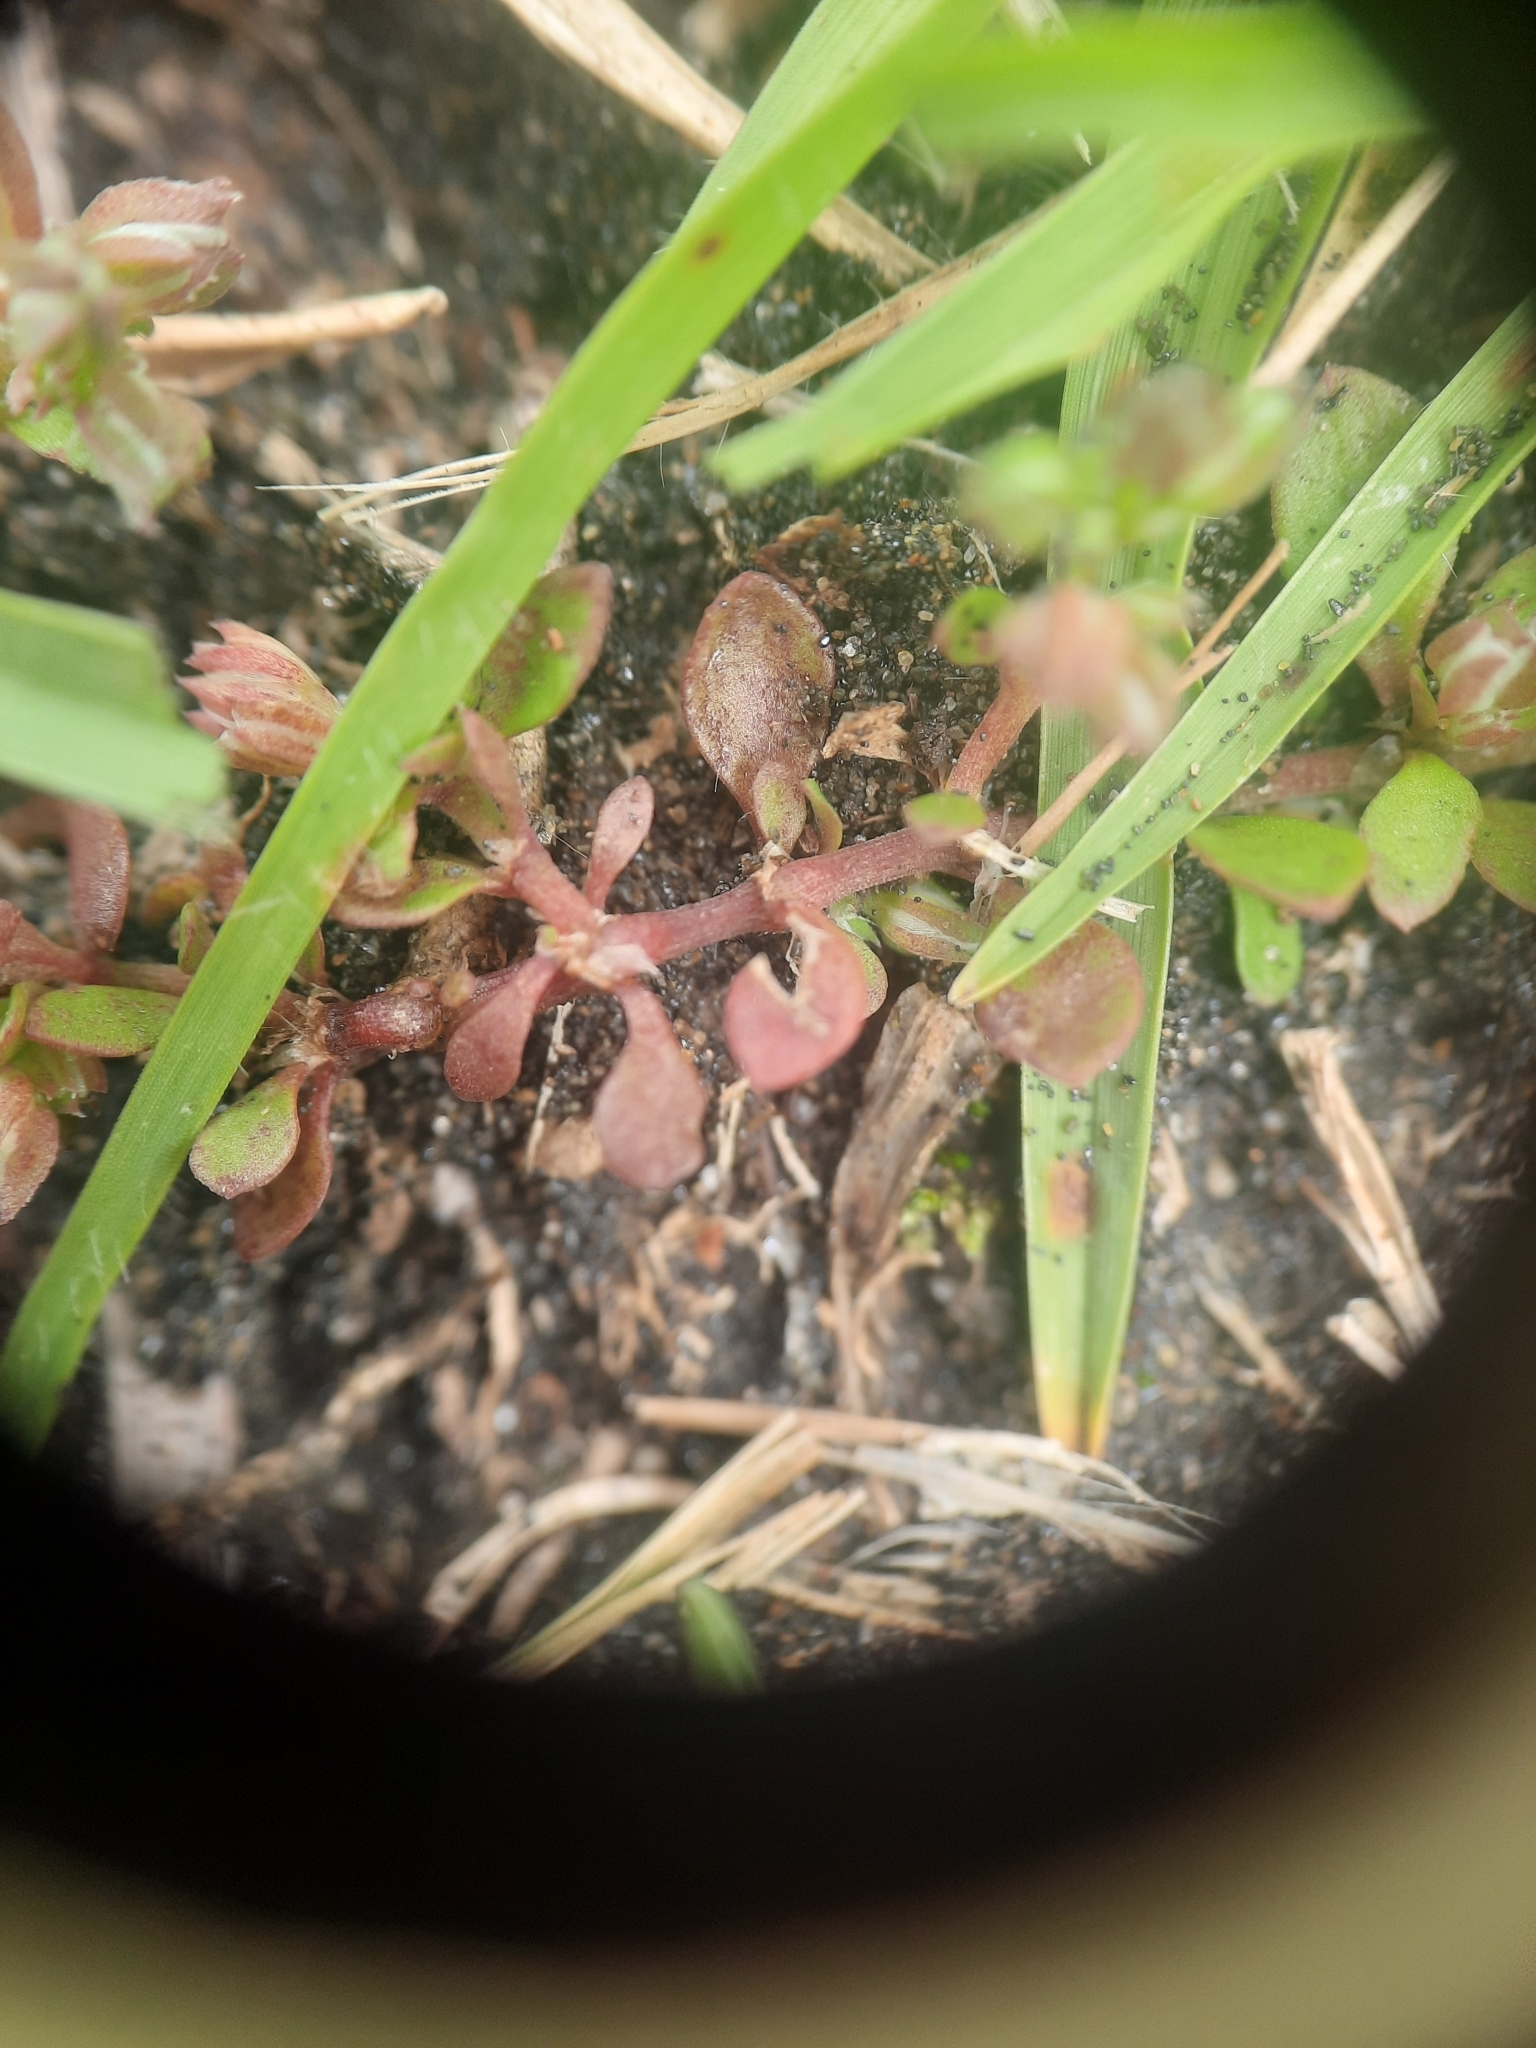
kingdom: Plantae
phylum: Tracheophyta
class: Magnoliopsida
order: Caryophyllales
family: Caryophyllaceae
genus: Polycarpon
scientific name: Polycarpon tetraphyllum
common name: Four-leaved all-seed
